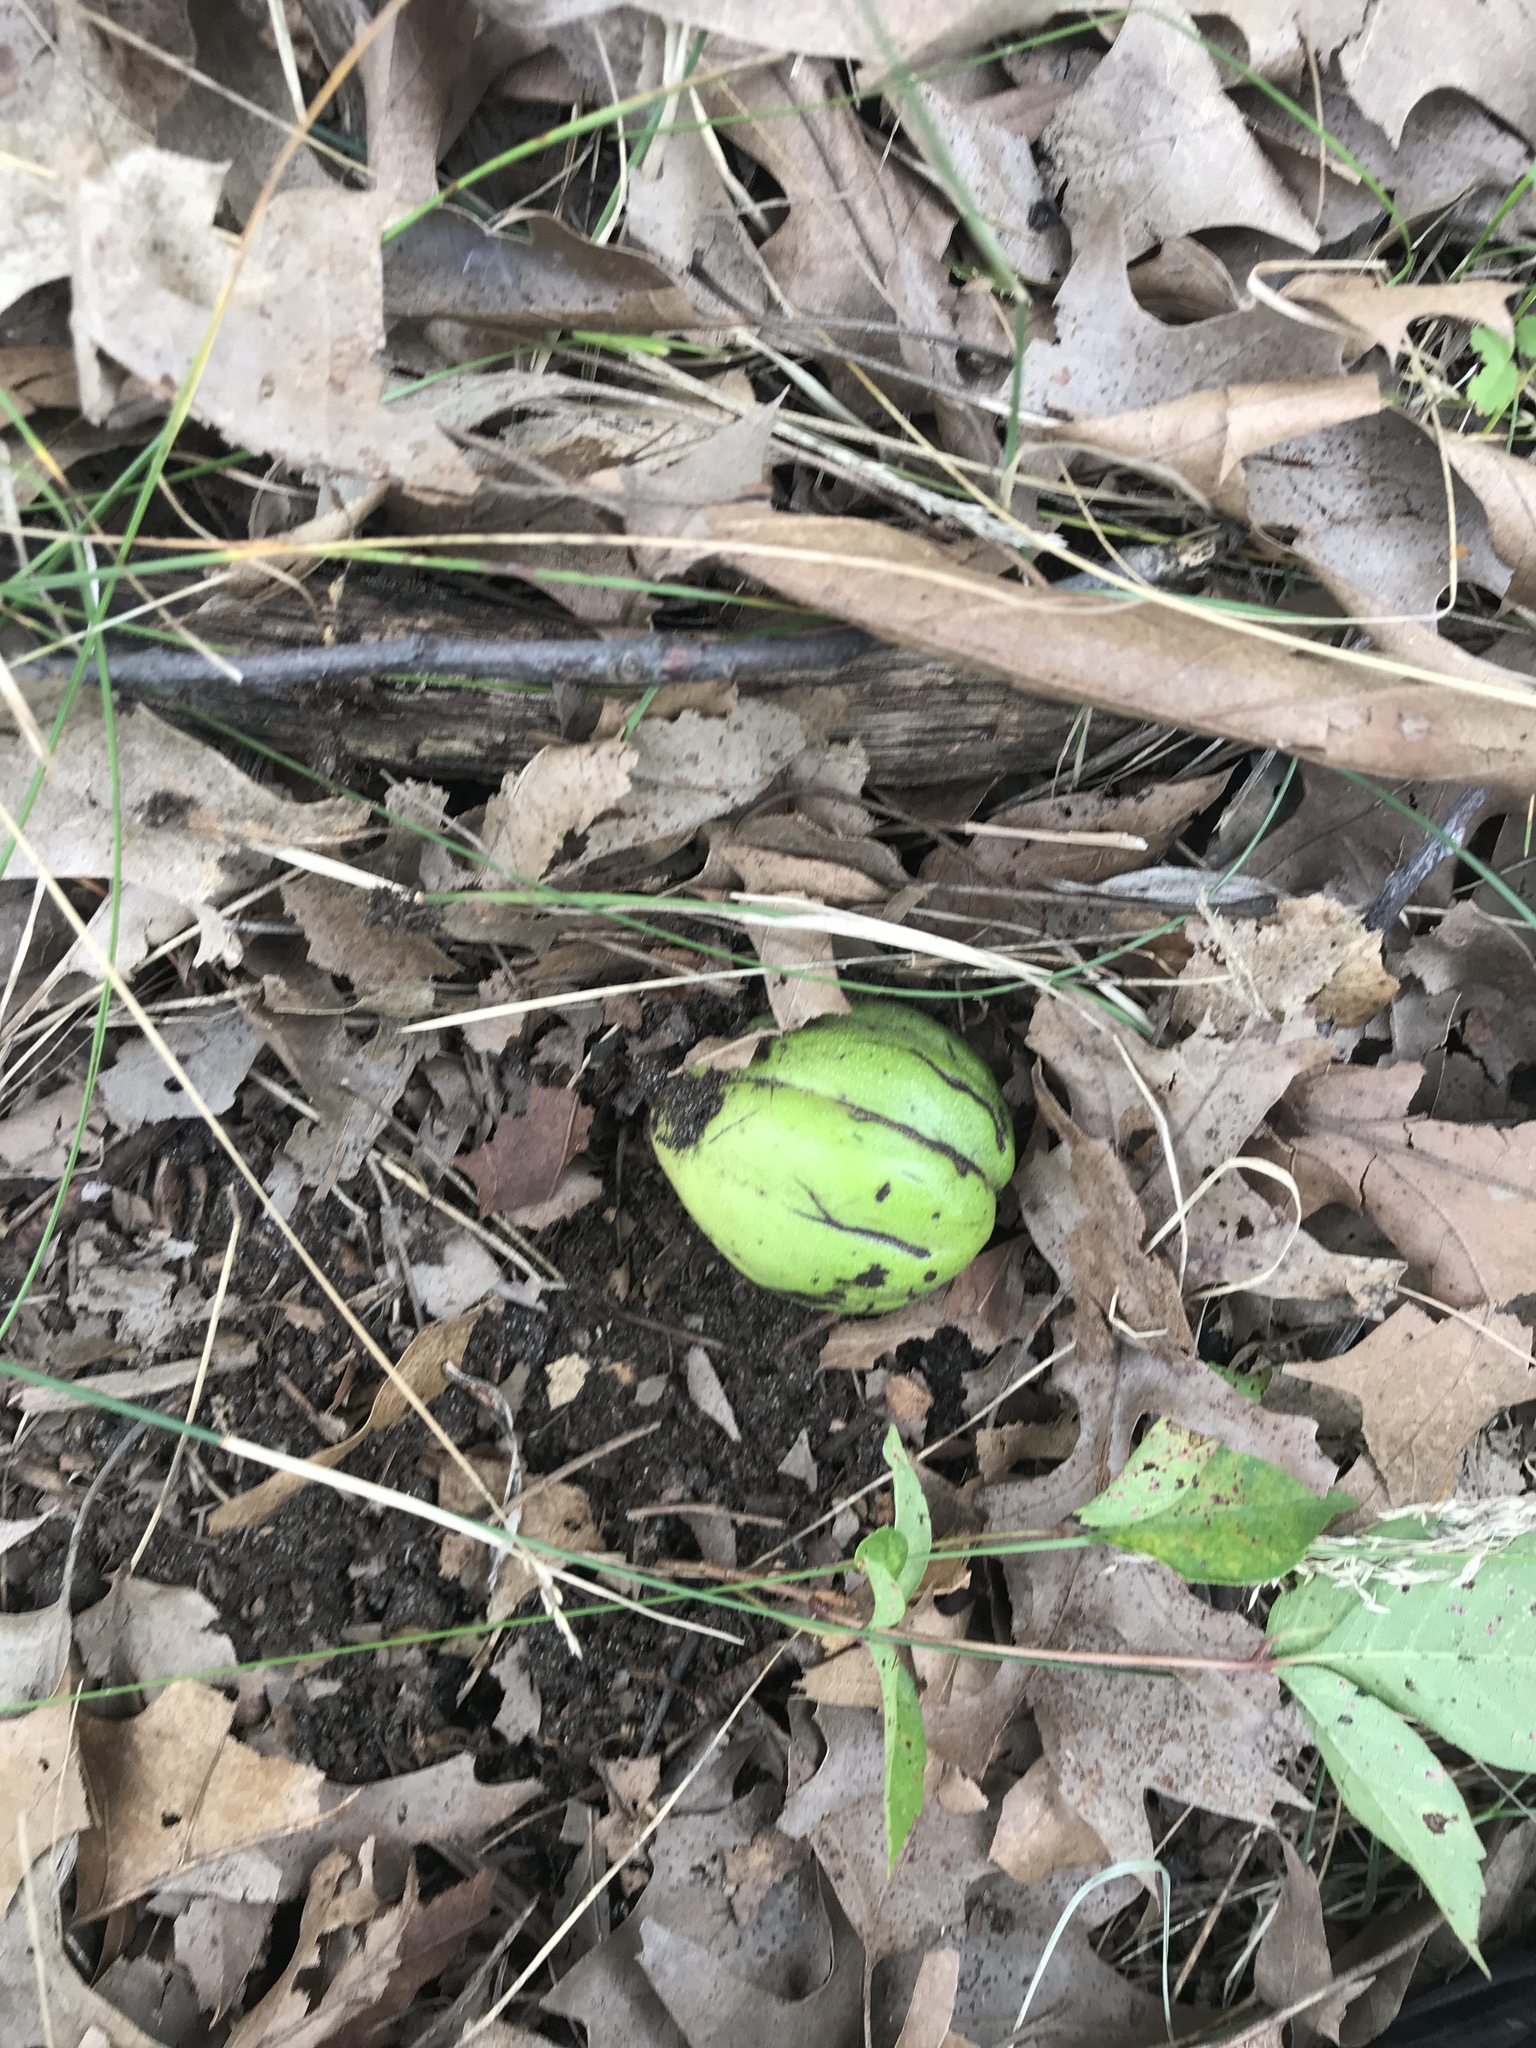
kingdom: Plantae
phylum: Tracheophyta
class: Magnoliopsida
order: Fagales
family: Juglandaceae
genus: Carya
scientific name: Carya ovata
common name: Shagbark hickory
